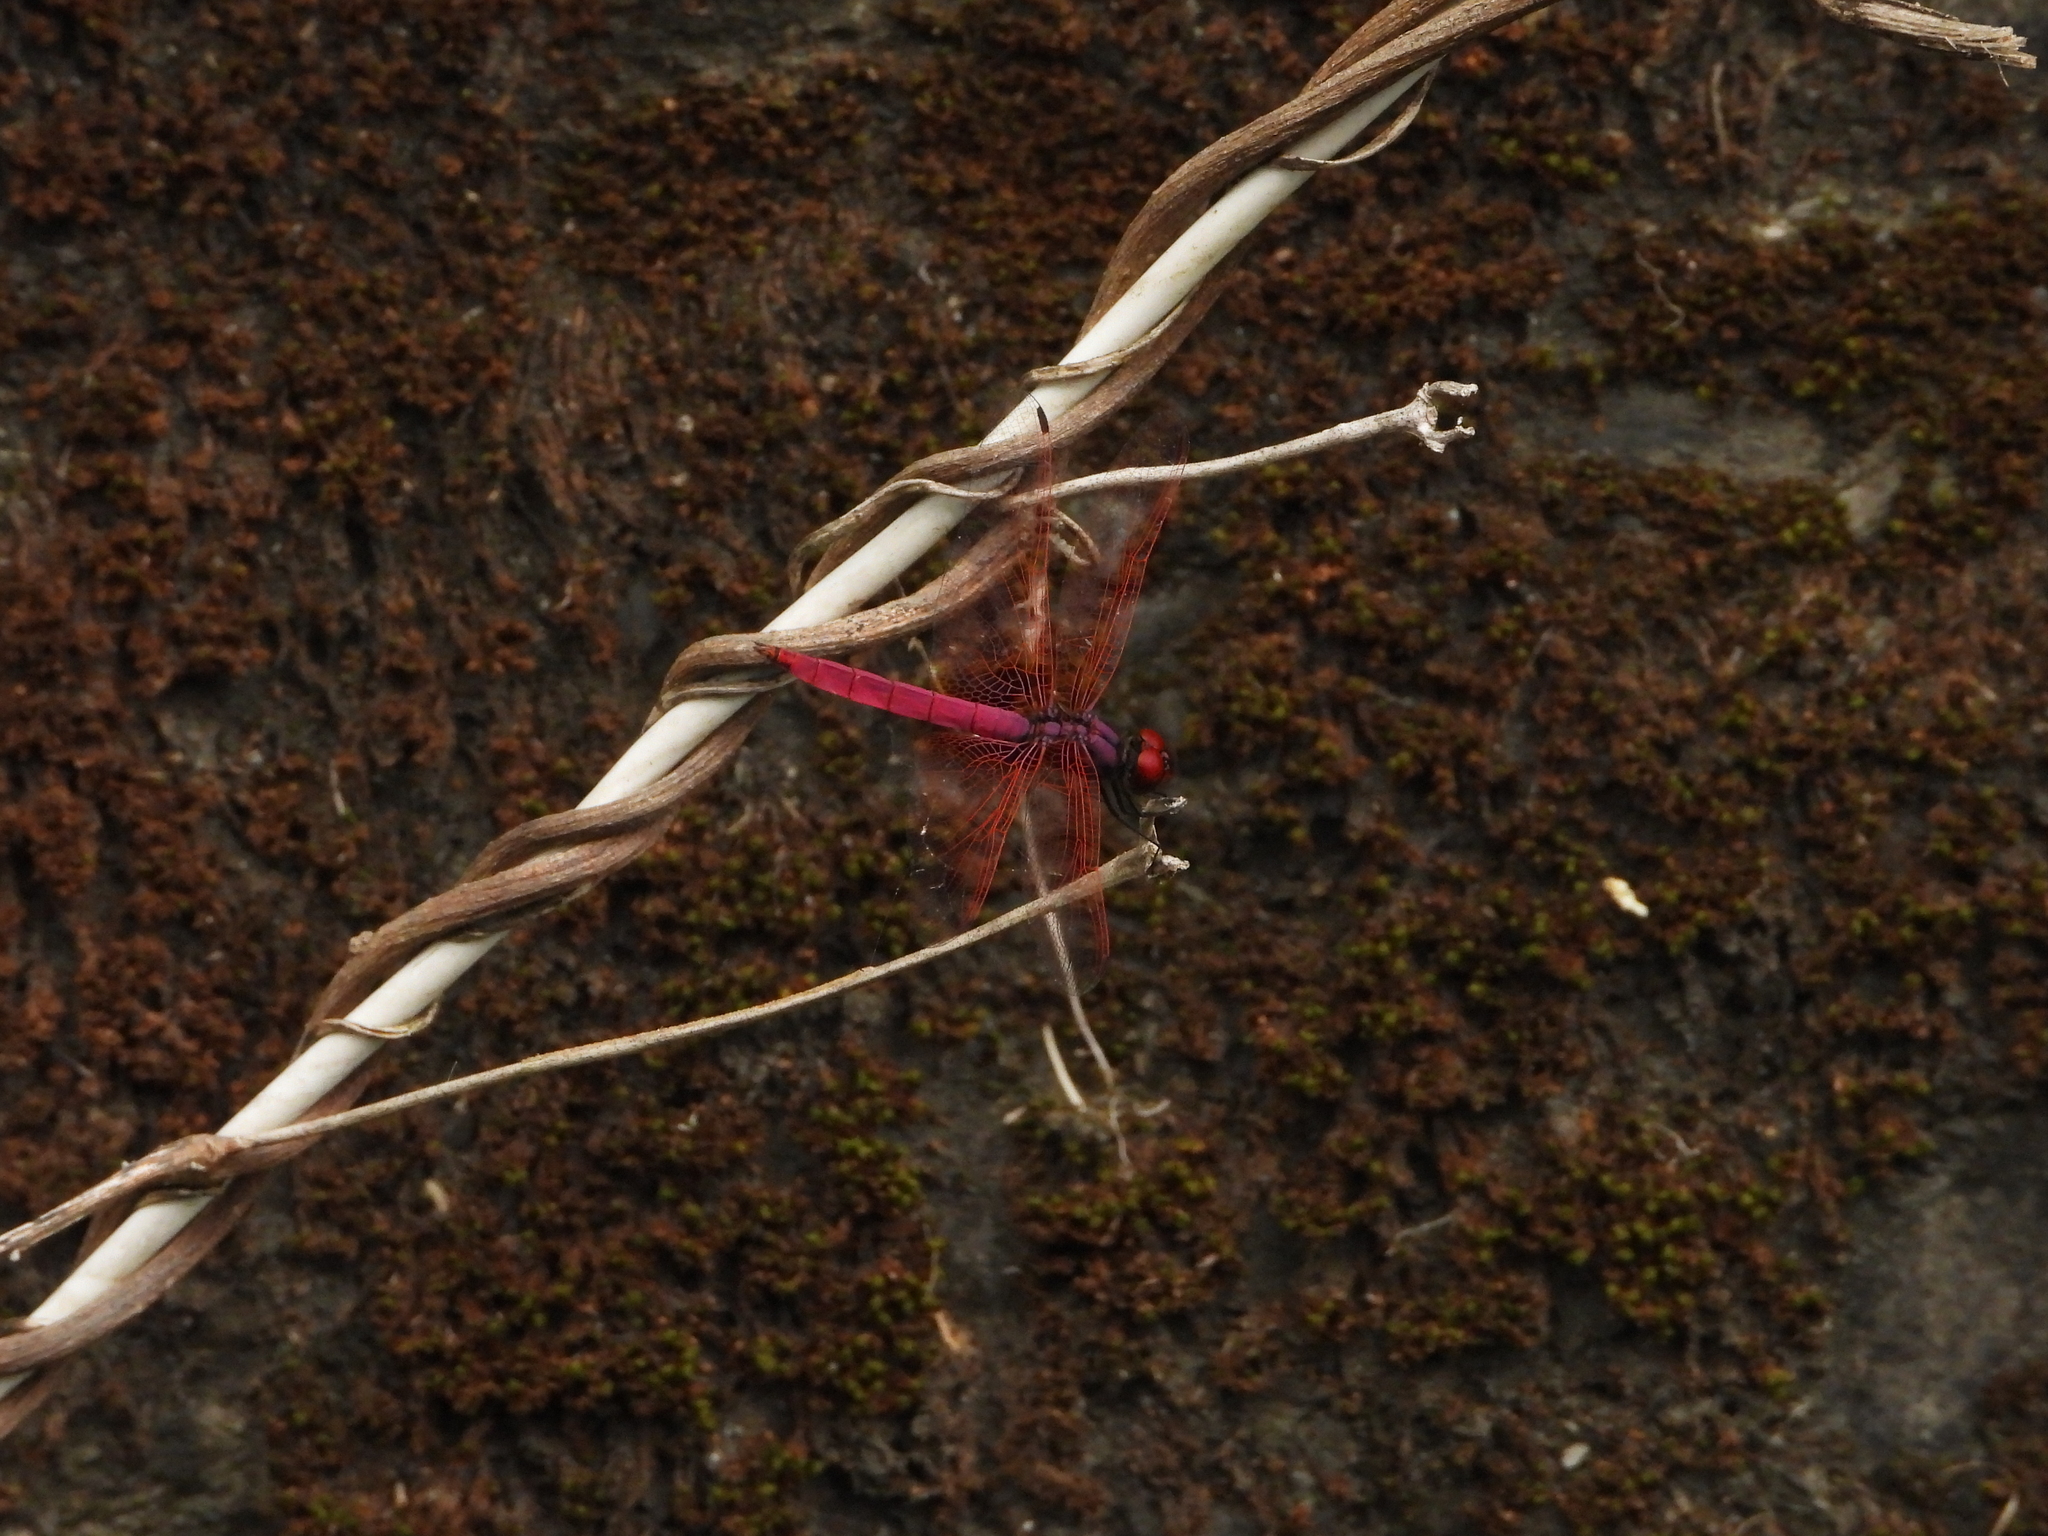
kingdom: Animalia
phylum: Arthropoda
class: Insecta
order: Odonata
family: Libellulidae
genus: Trithemis
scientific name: Trithemis aurora
